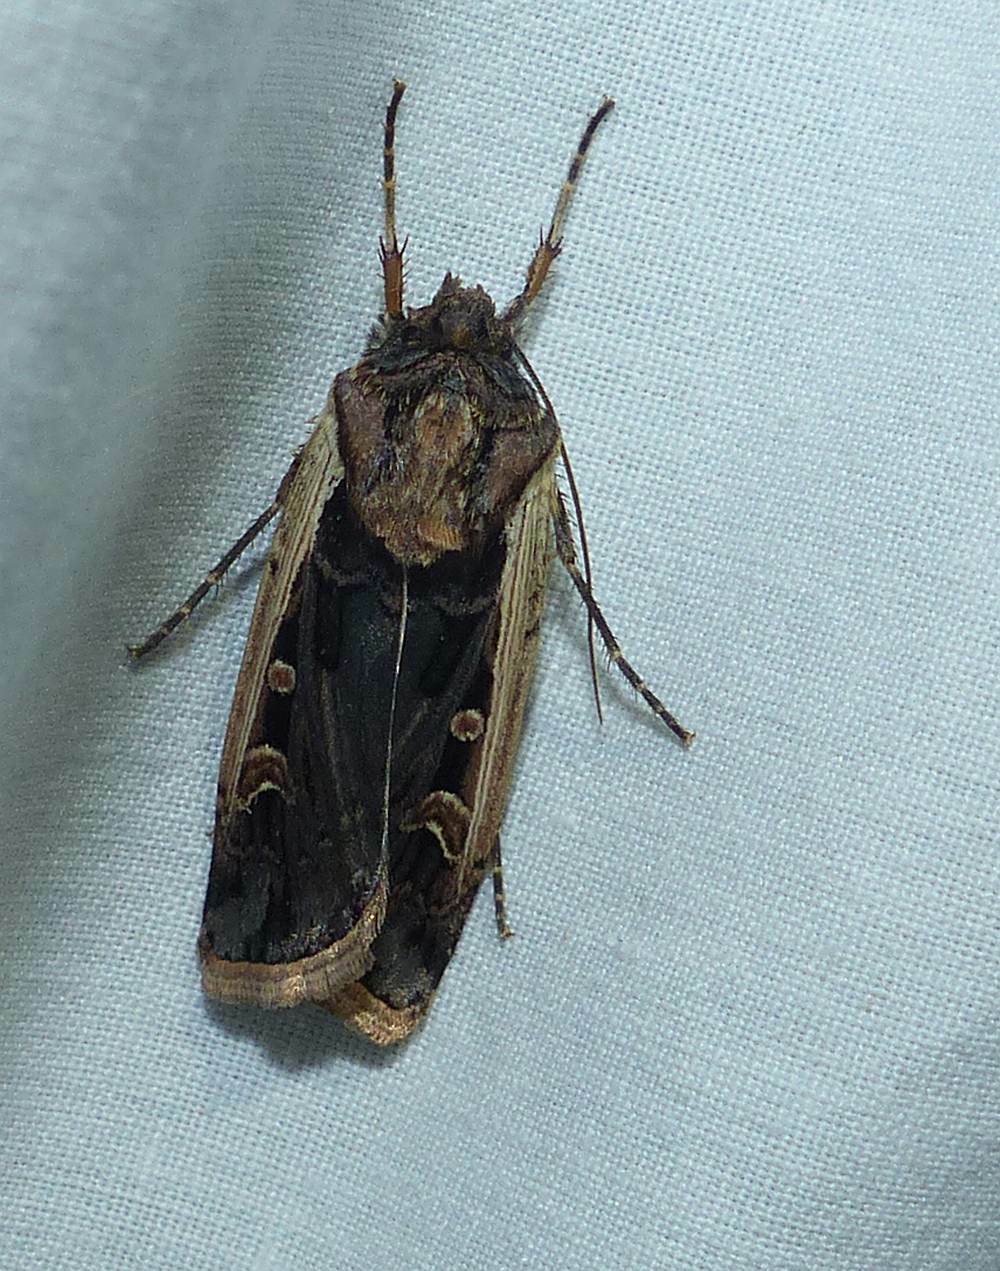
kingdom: Animalia
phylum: Arthropoda
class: Insecta
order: Lepidoptera
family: Noctuidae
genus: Striacosta
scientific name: Striacosta albicosta
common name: Western bean cutworm moth
